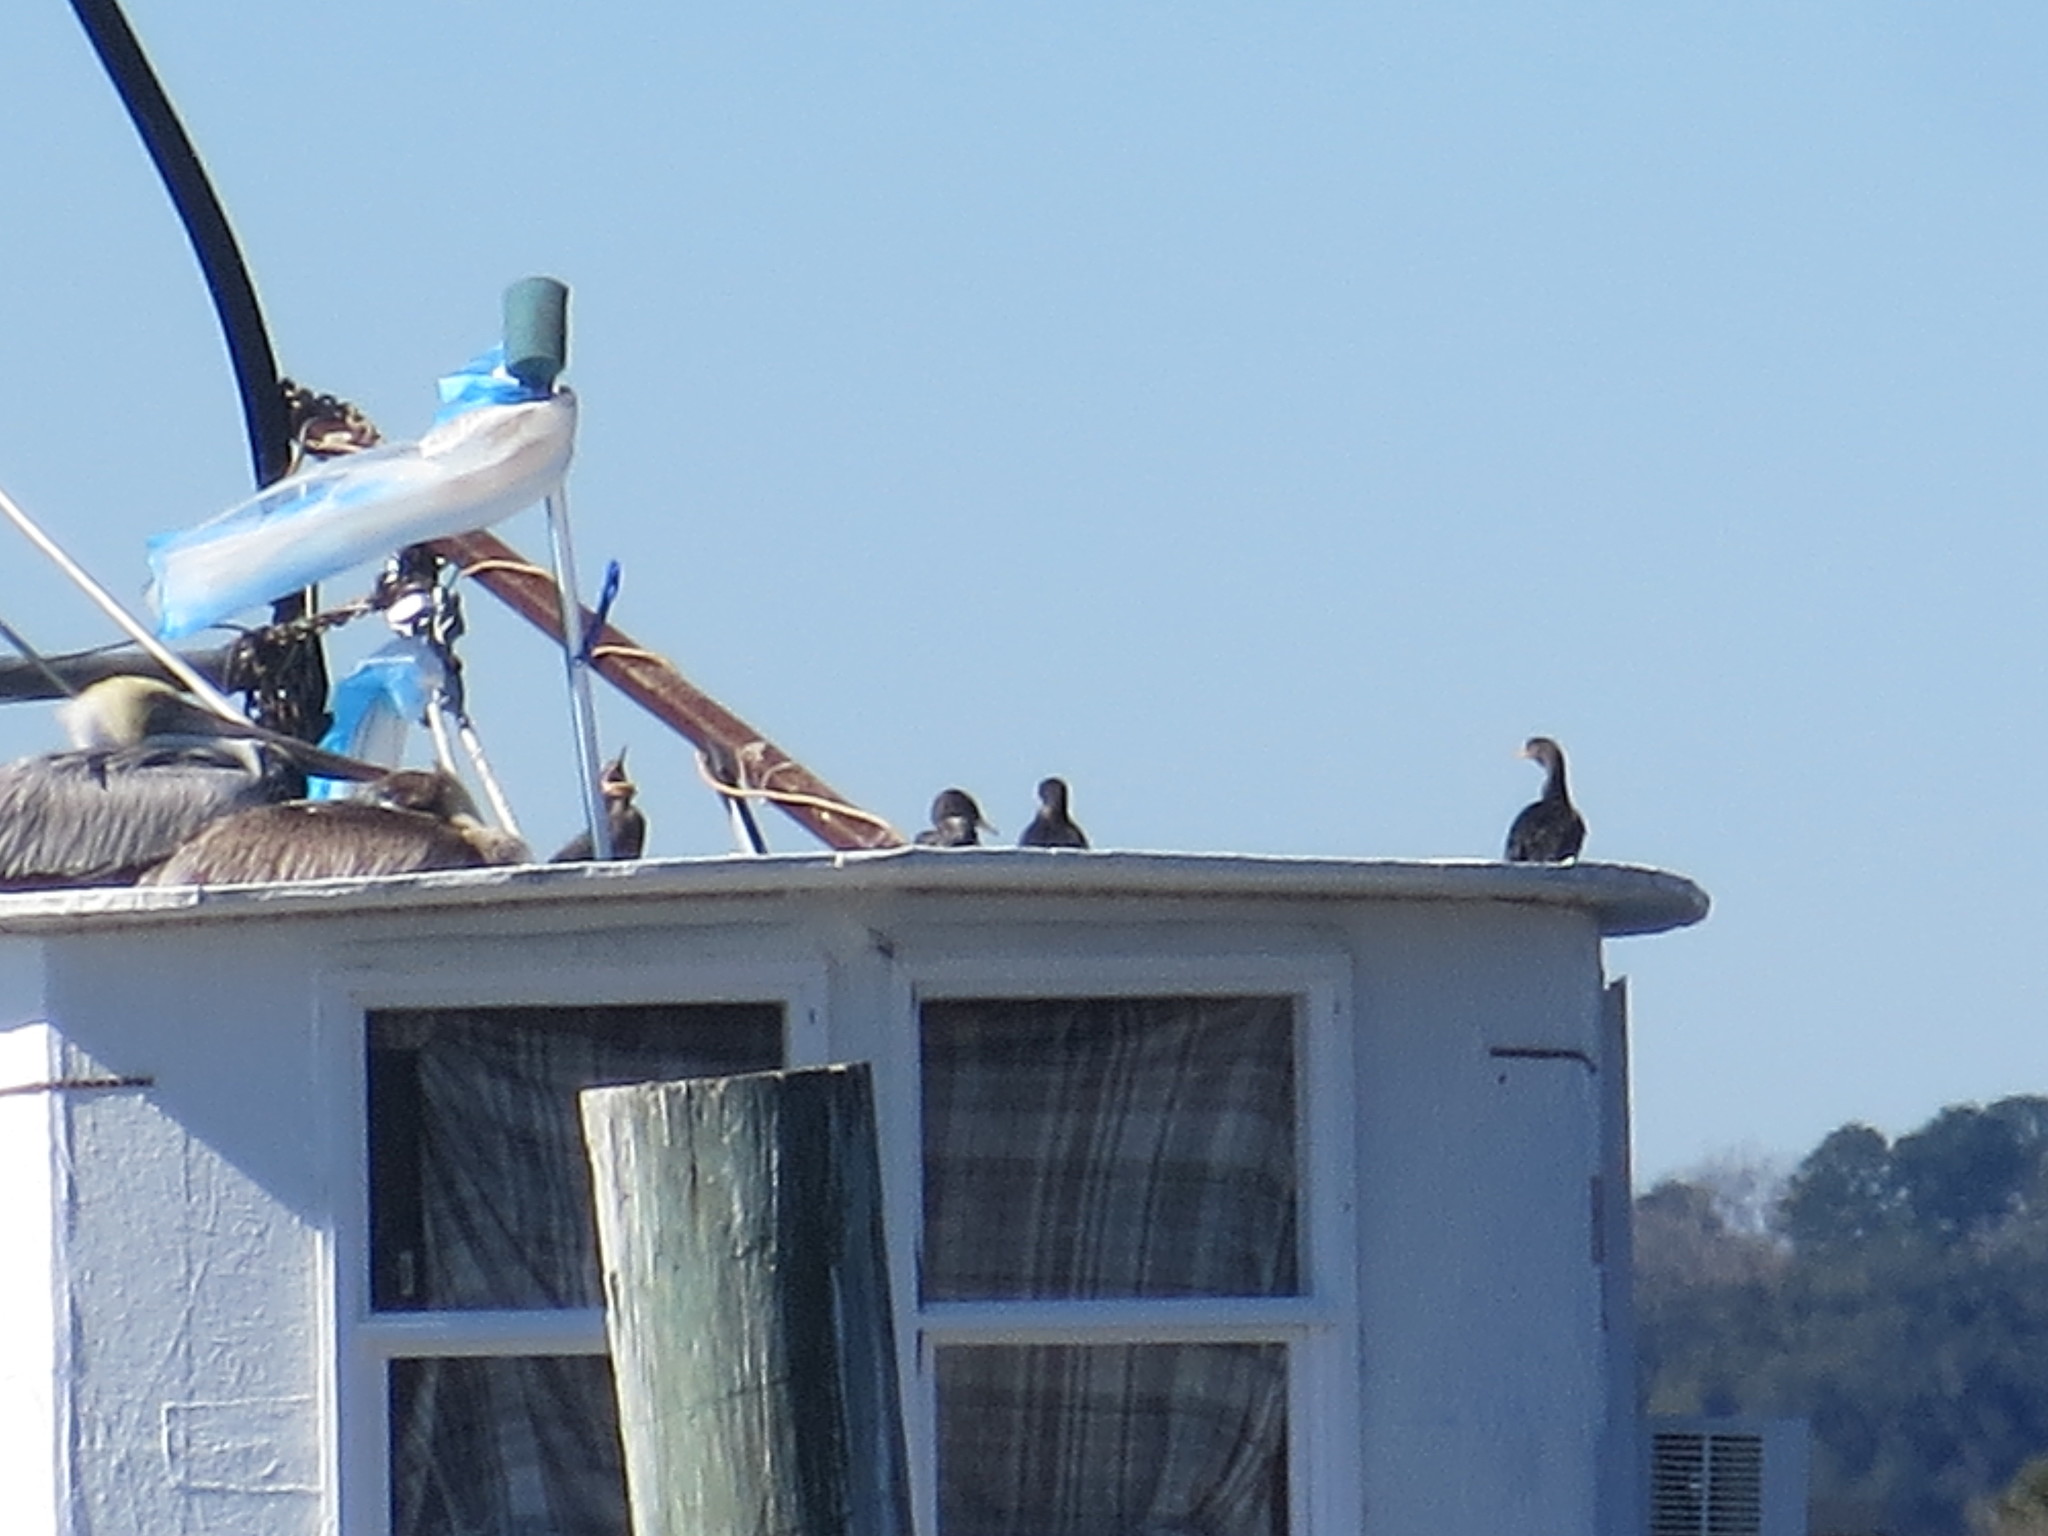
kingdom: Animalia
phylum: Chordata
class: Aves
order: Suliformes
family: Phalacrocoracidae
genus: Phalacrocorax
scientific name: Phalacrocorax auritus
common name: Double-crested cormorant
